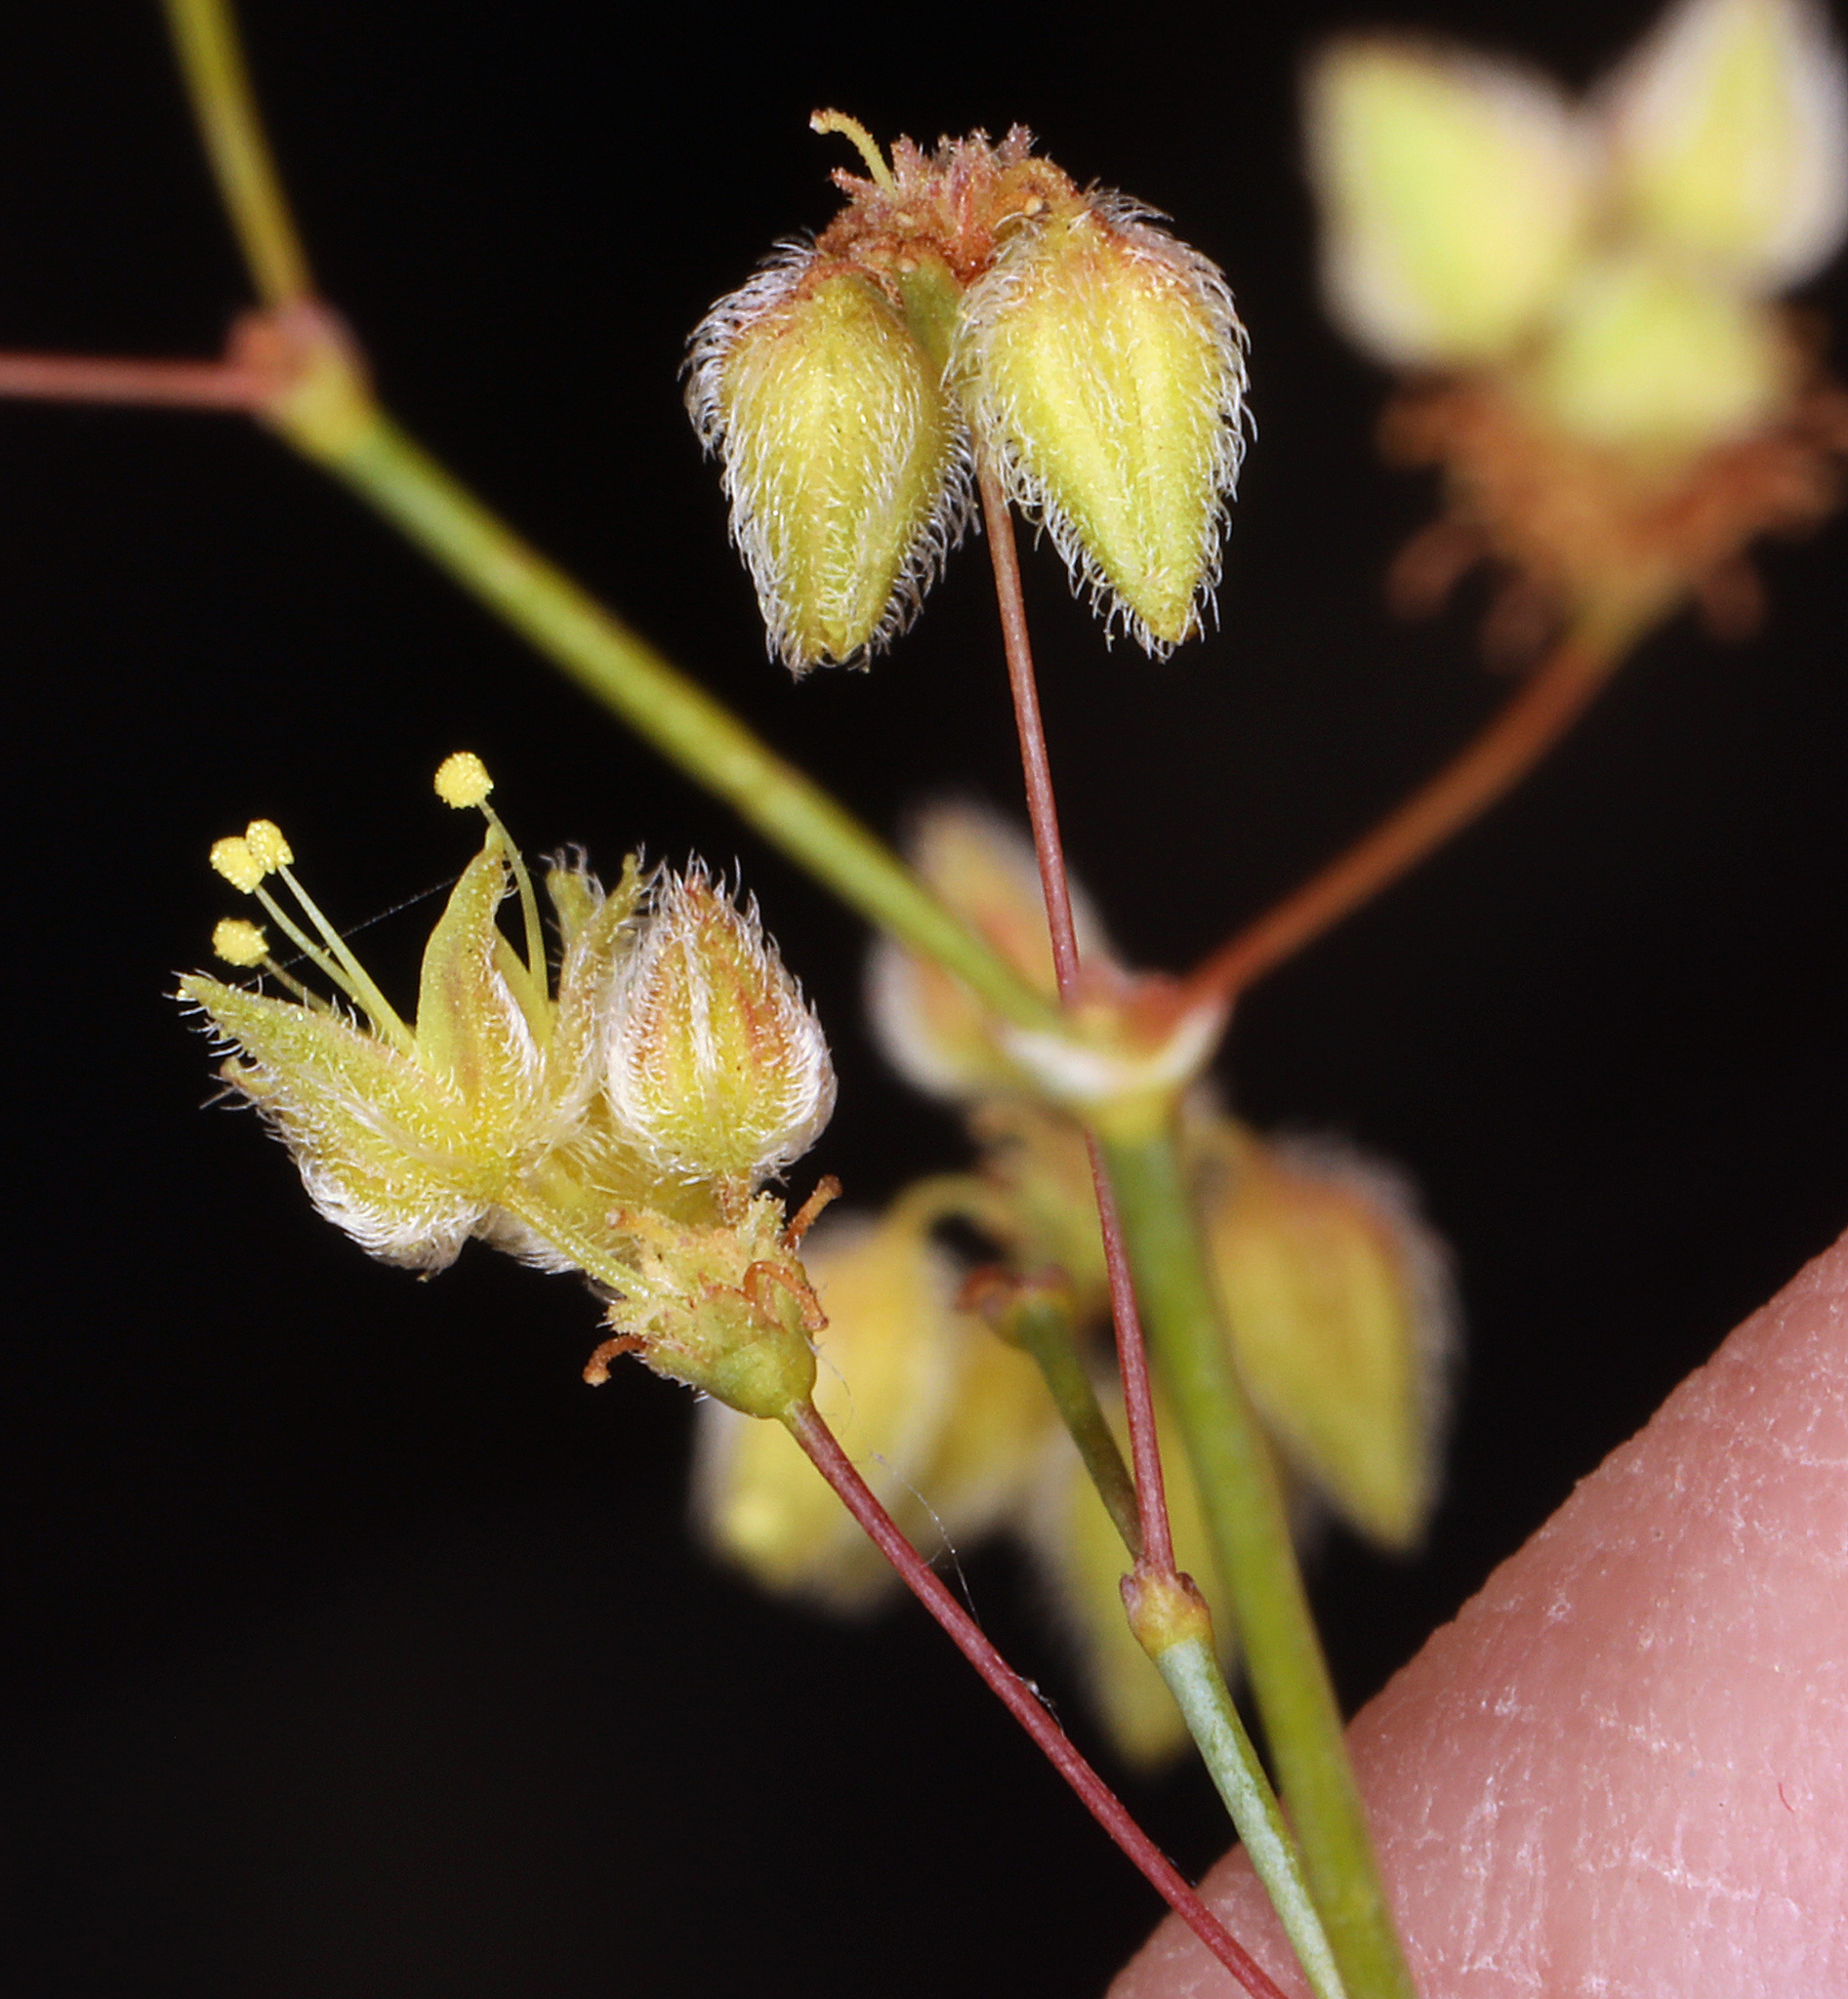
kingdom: Plantae
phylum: Tracheophyta
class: Magnoliopsida
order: Caryophyllales
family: Polygonaceae
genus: Eriogonum
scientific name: Eriogonum inflatum
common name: Desert trumpet
